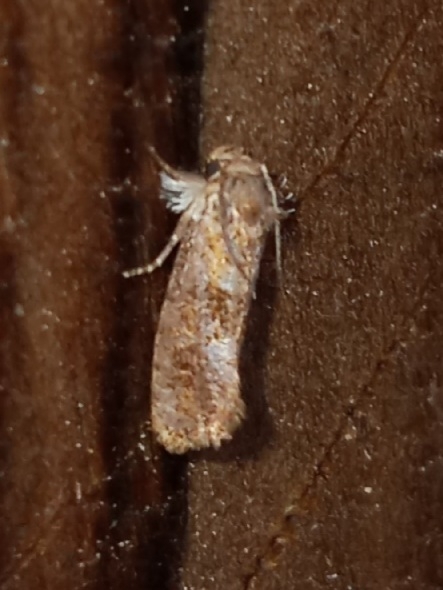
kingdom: Animalia
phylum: Arthropoda
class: Insecta
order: Lepidoptera
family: Tineidae
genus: Acrolophus
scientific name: Acrolophus panamae
